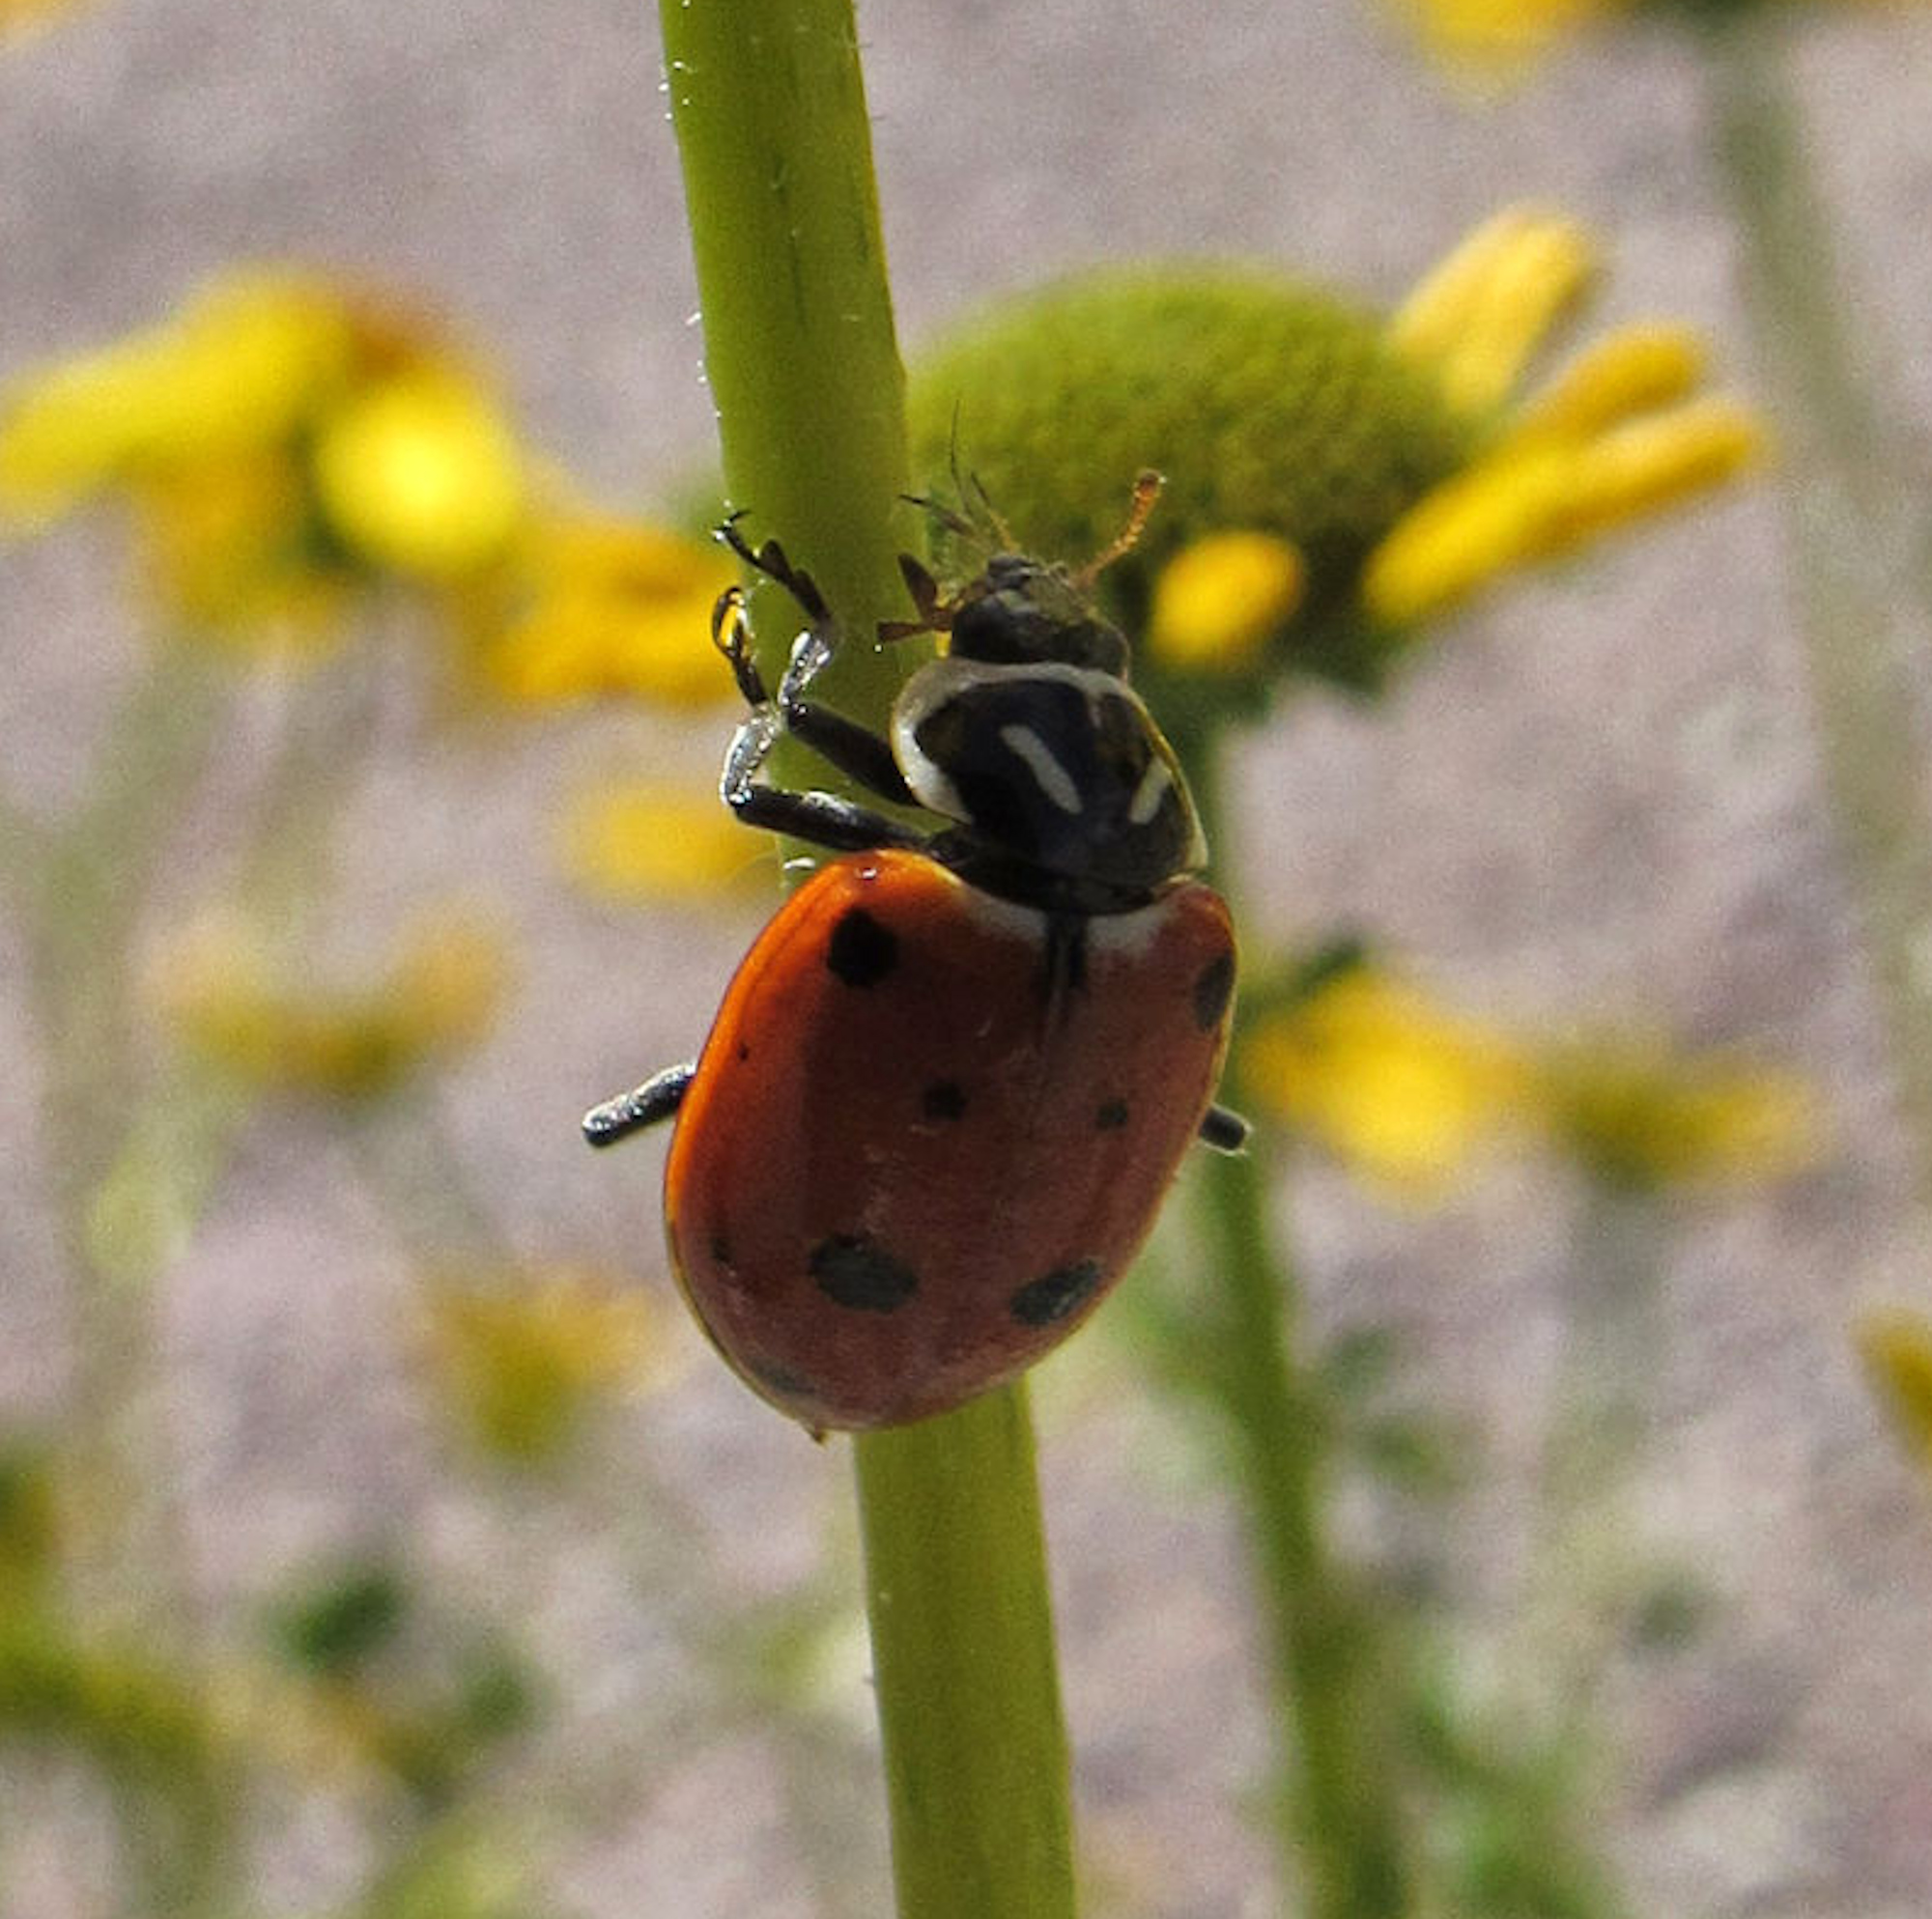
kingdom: Animalia
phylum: Arthropoda
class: Insecta
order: Coleoptera
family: Coccinellidae
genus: Hippodamia
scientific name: Hippodamia convergens
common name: Convergent lady beetle
